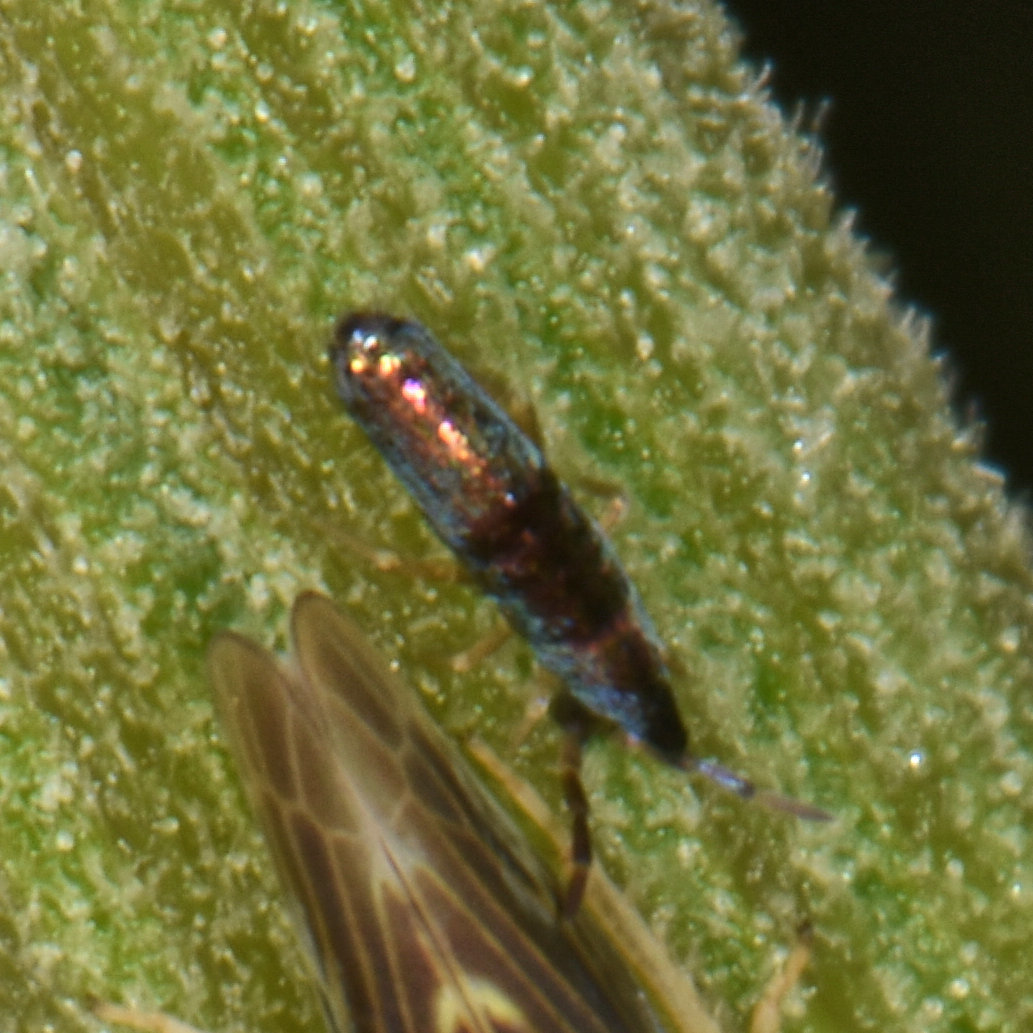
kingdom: Animalia
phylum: Arthropoda
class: Collembola
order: Entomobryomorpha
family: Entomobryidae
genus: Lepidocyrtus
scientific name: Lepidocyrtus paradoxus
